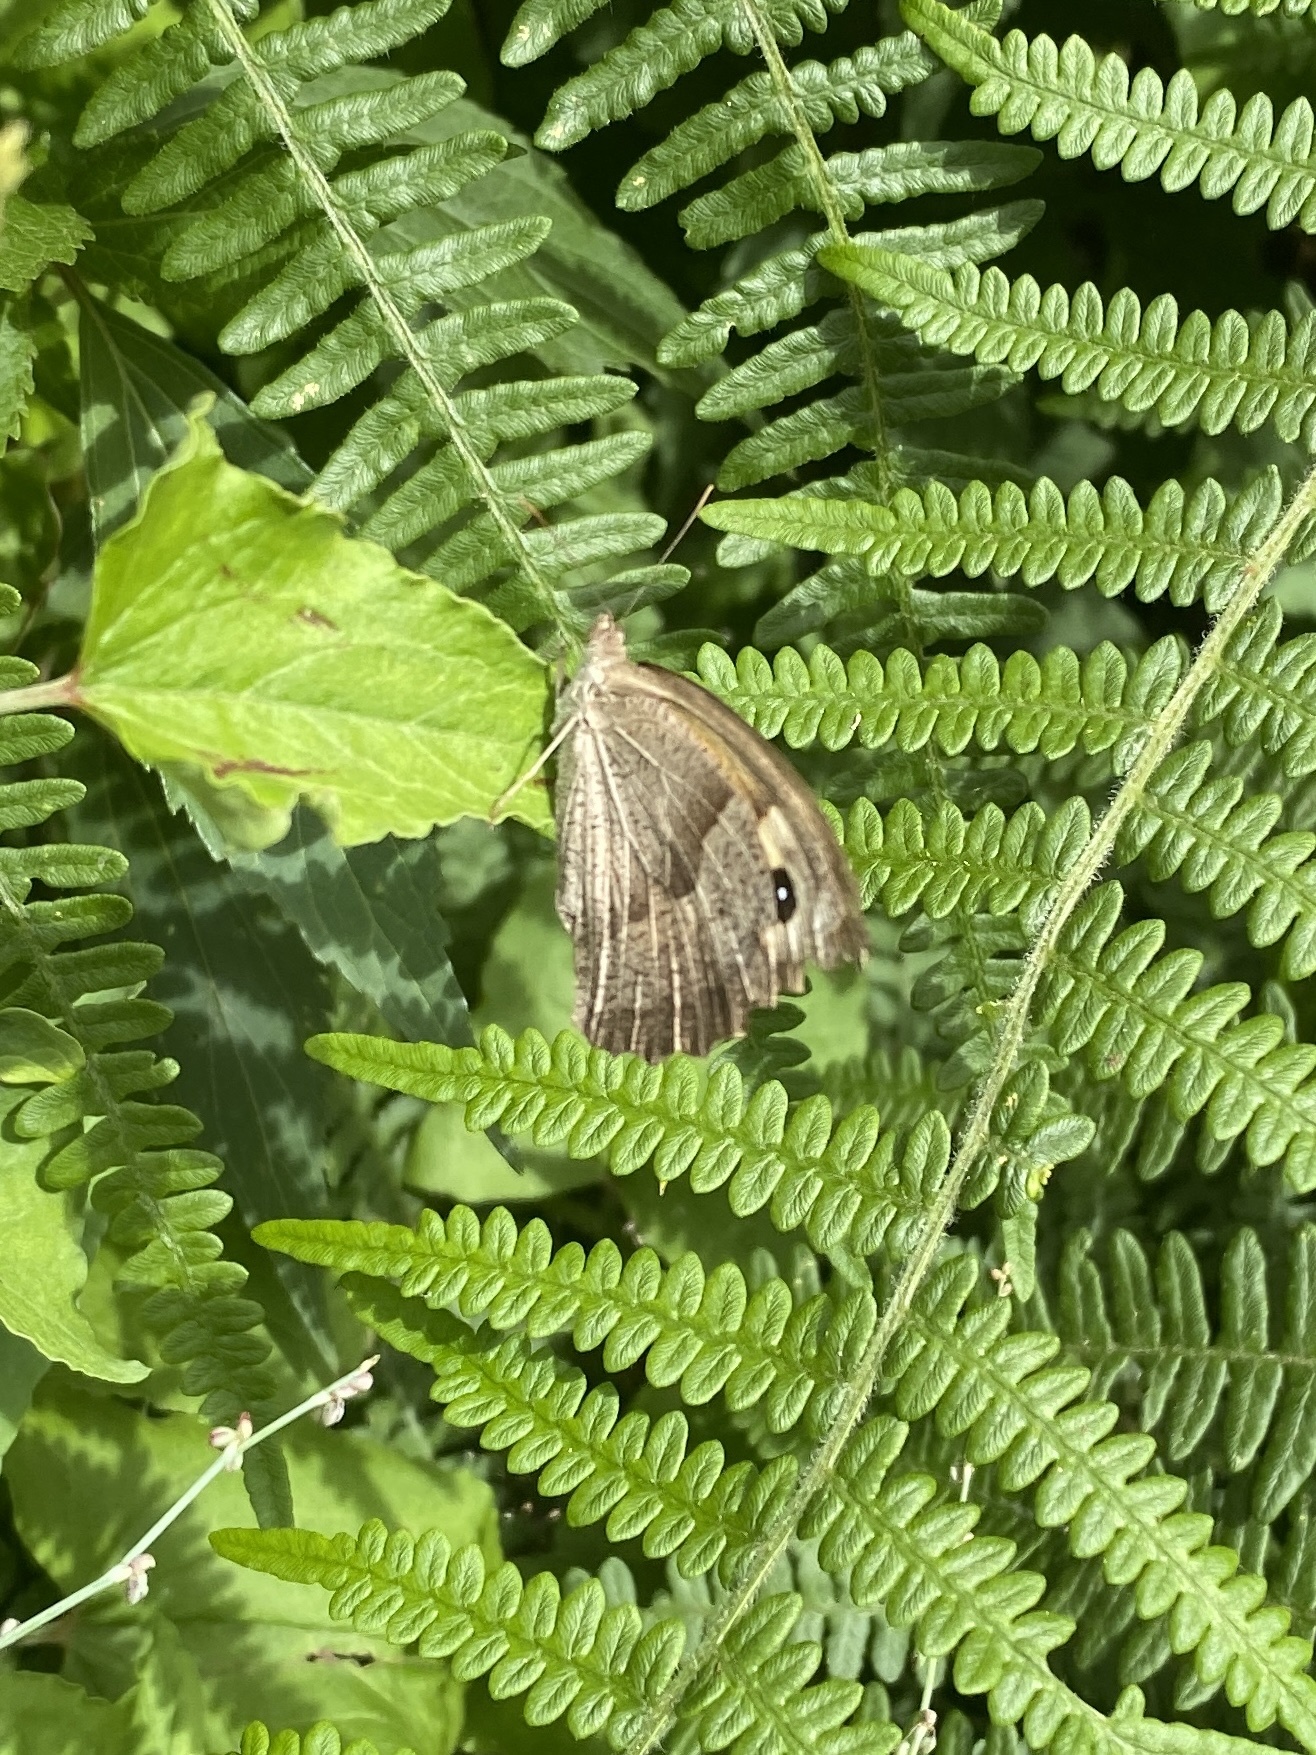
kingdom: Animalia
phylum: Arthropoda
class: Insecta
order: Lepidoptera
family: Nymphalidae
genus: Maniola
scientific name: Maniola jurtina
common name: Meadow brown
